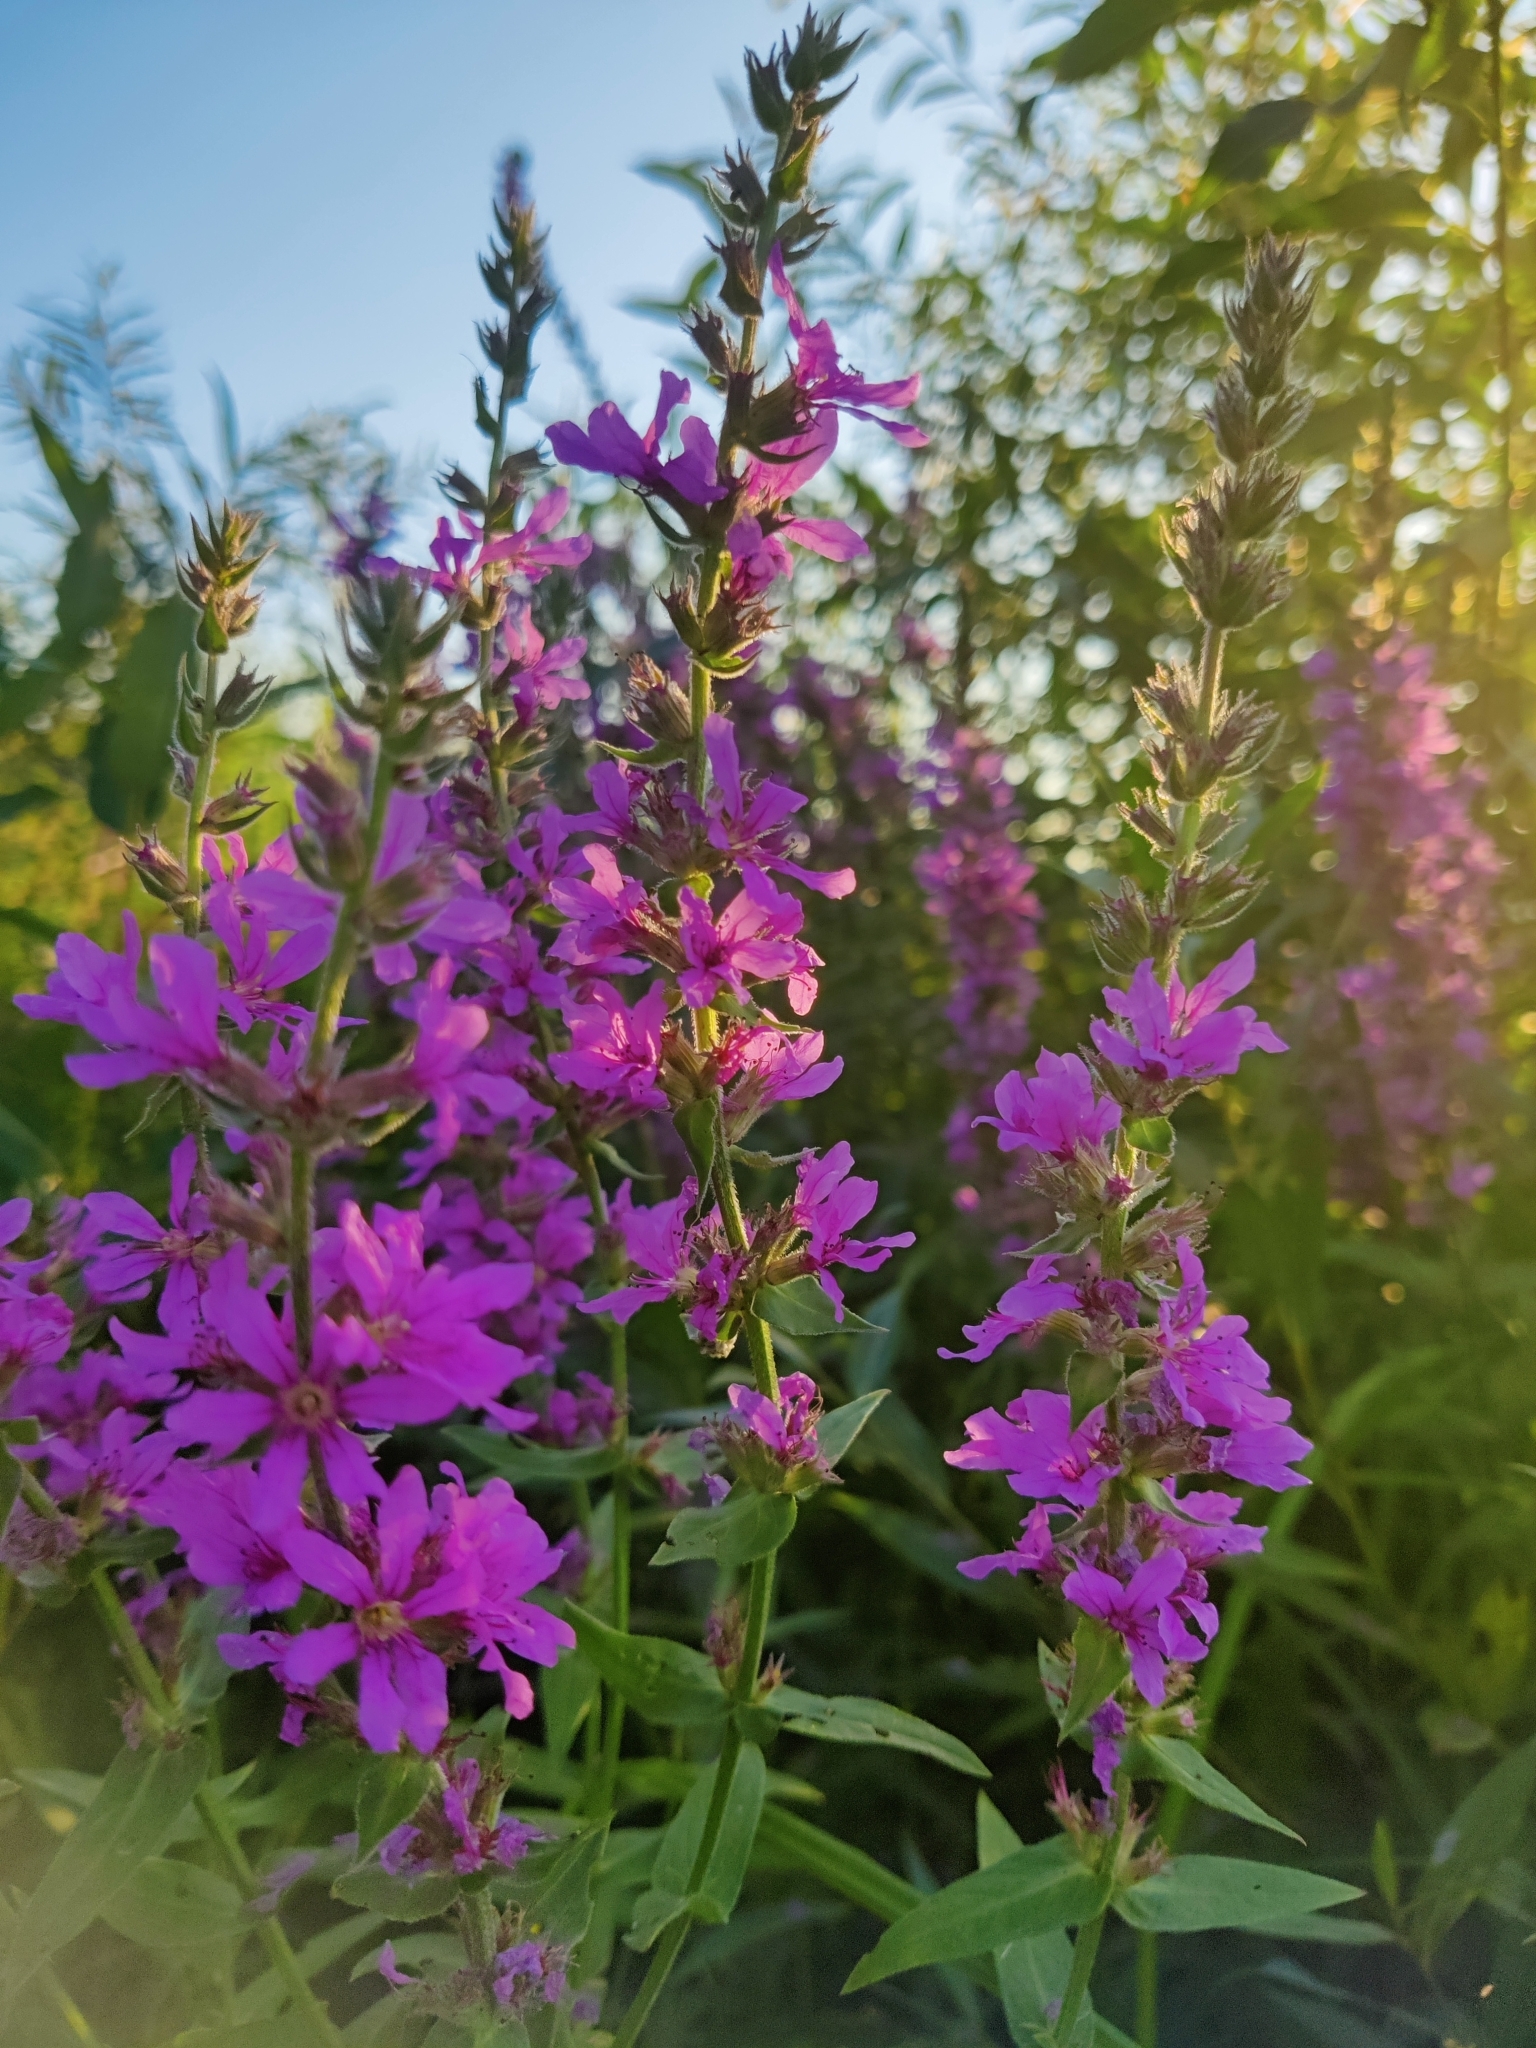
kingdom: Plantae
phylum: Tracheophyta
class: Magnoliopsida
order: Myrtales
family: Lythraceae
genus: Lythrum
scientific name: Lythrum salicaria
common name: Purple loosestrife
